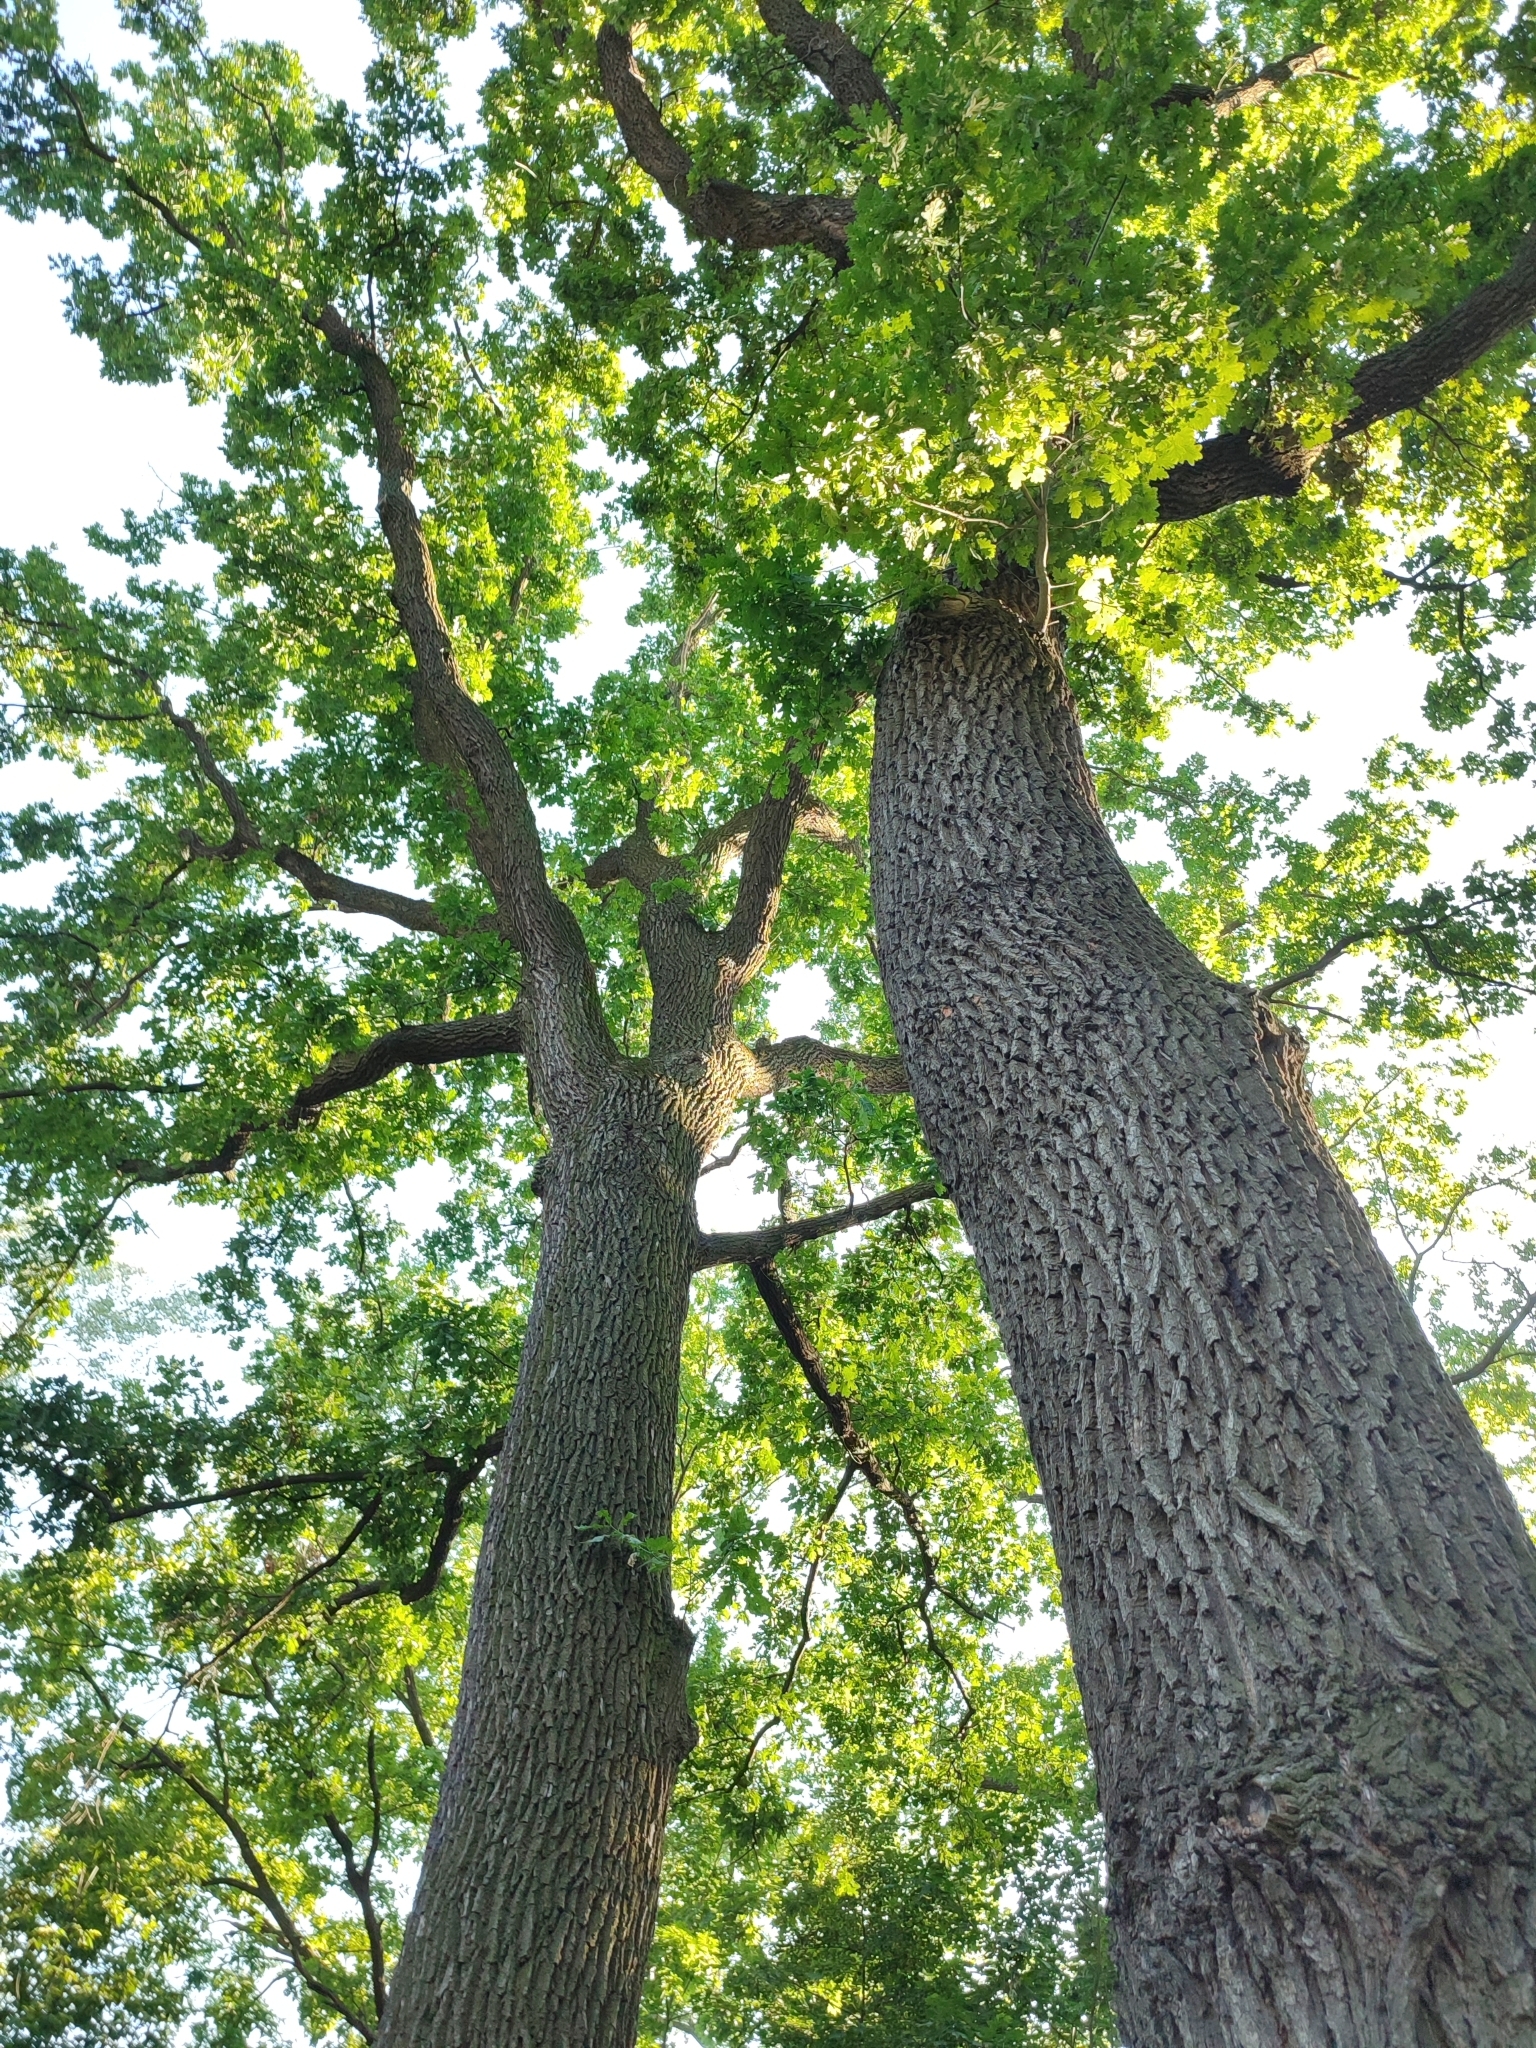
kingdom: Plantae
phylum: Tracheophyta
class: Magnoliopsida
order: Fagales
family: Fagaceae
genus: Quercus
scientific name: Quercus robur
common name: Pedunculate oak
